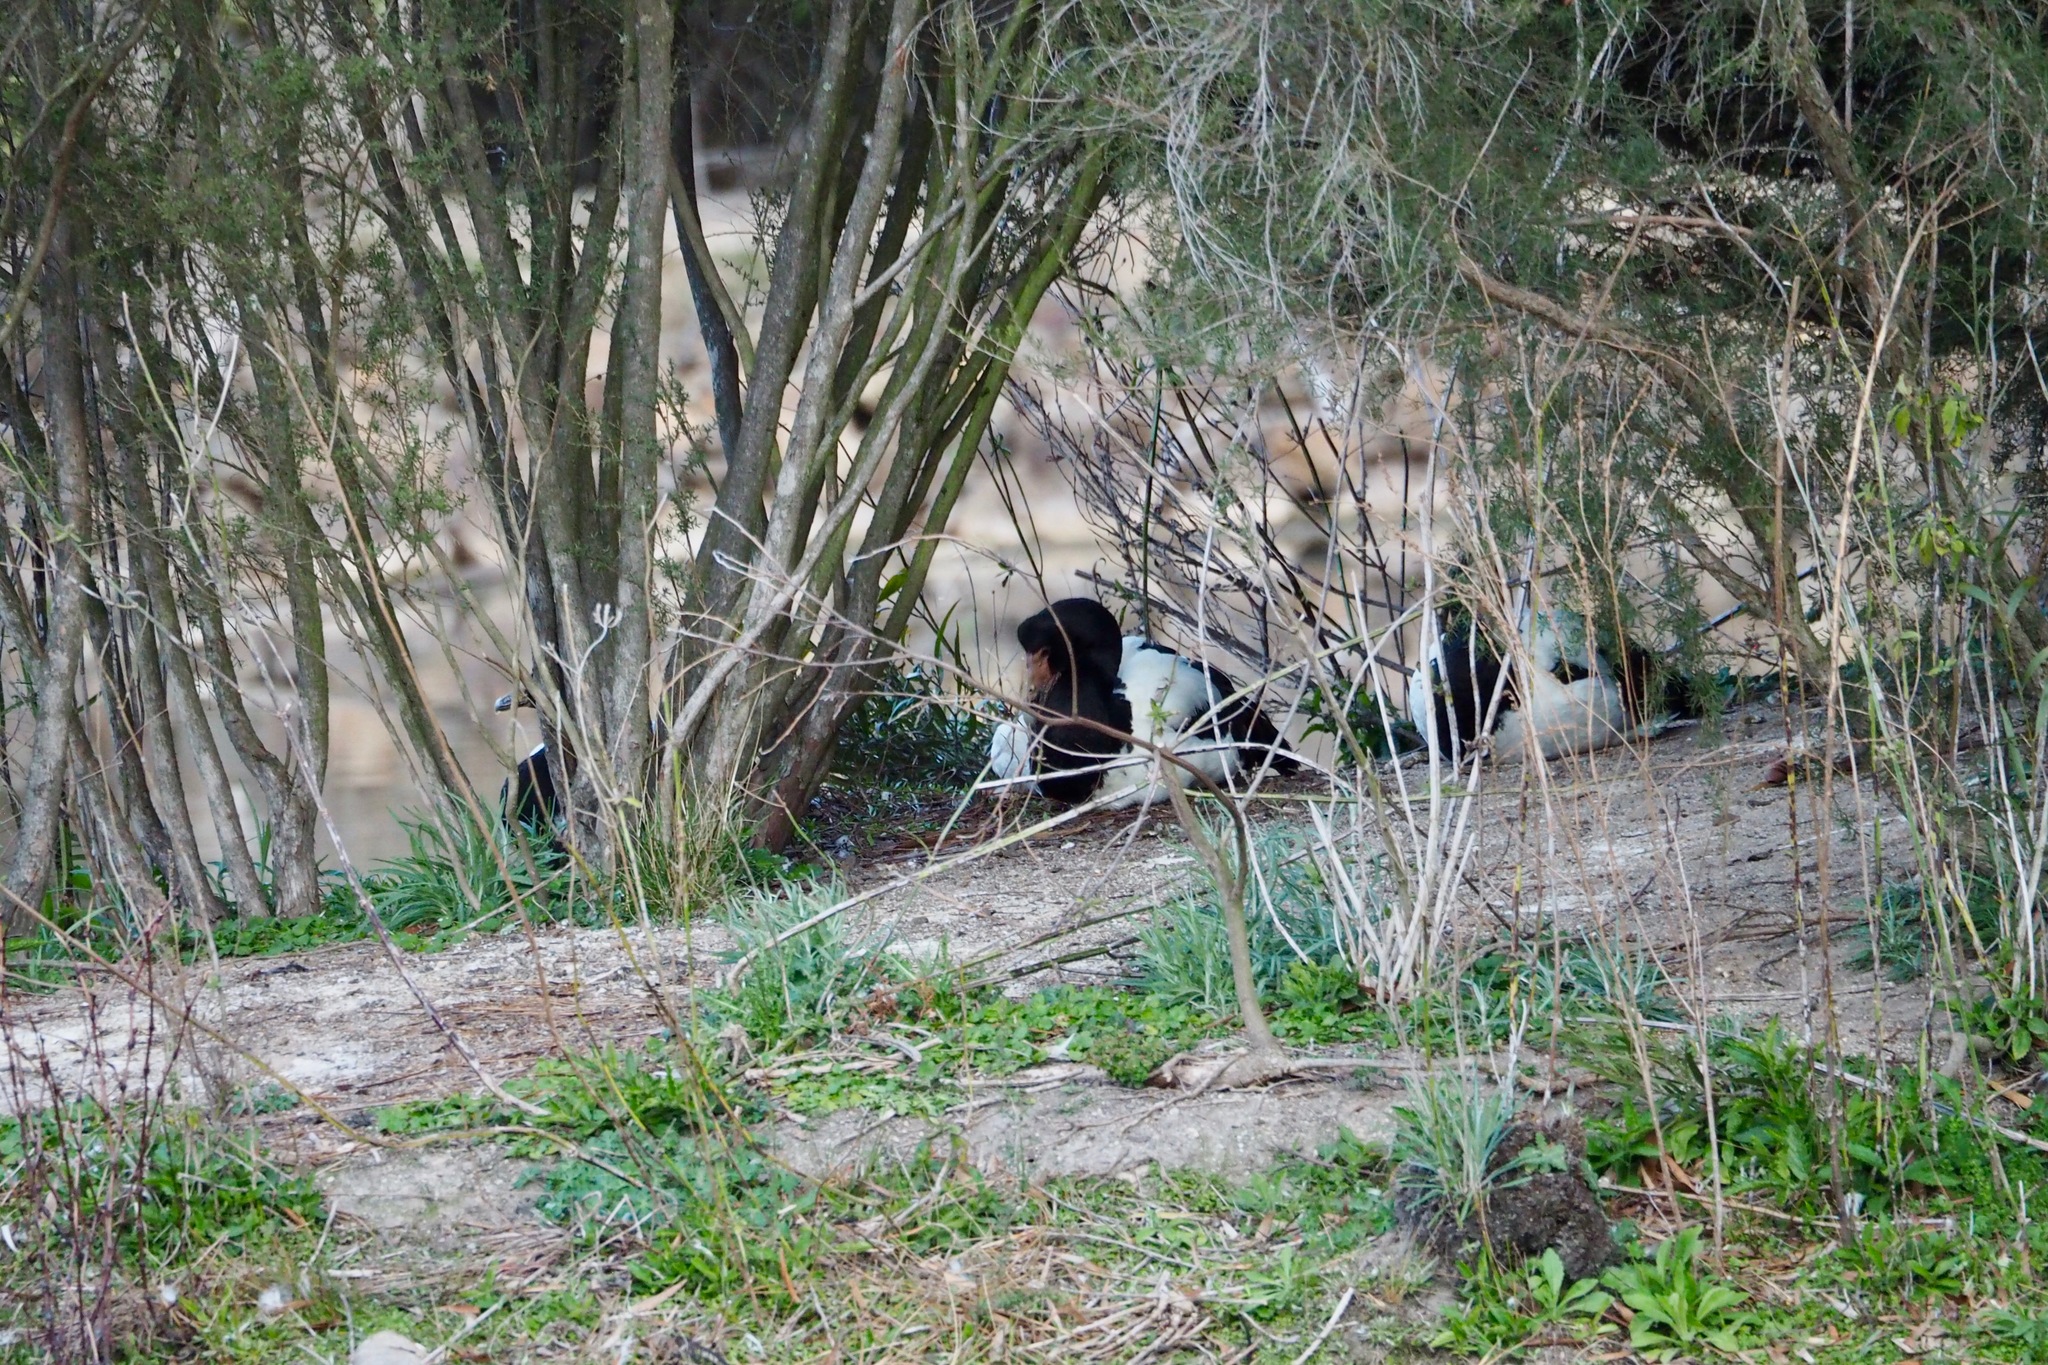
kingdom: Animalia
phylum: Chordata
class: Aves
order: Anseriformes
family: Anseranatidae
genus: Anseranas
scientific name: Anseranas semipalmata
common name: Magpie goose
